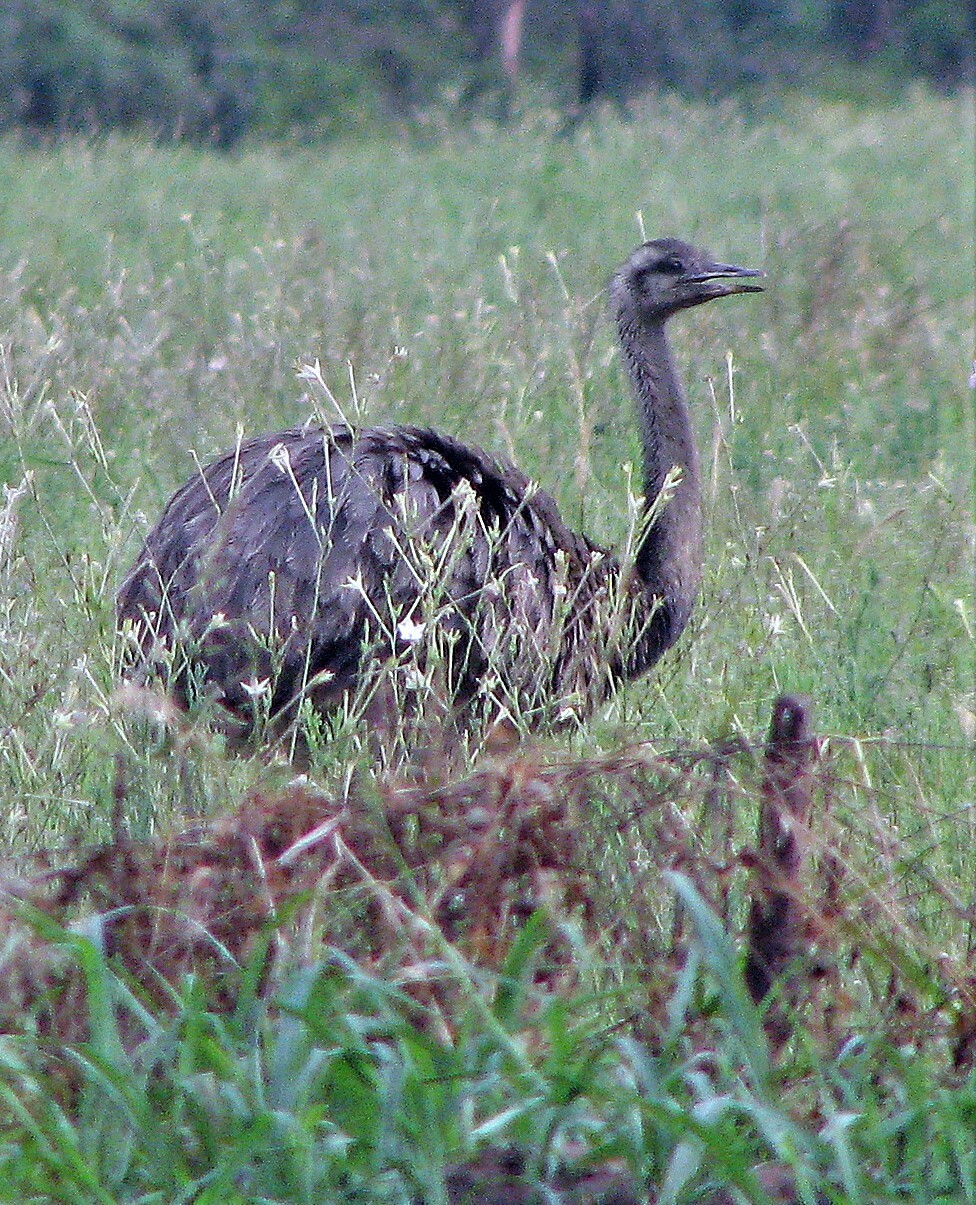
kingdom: Animalia
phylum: Chordata
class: Aves
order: Rheiformes
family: Rheidae
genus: Rhea
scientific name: Rhea americana
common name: Greater rhea
